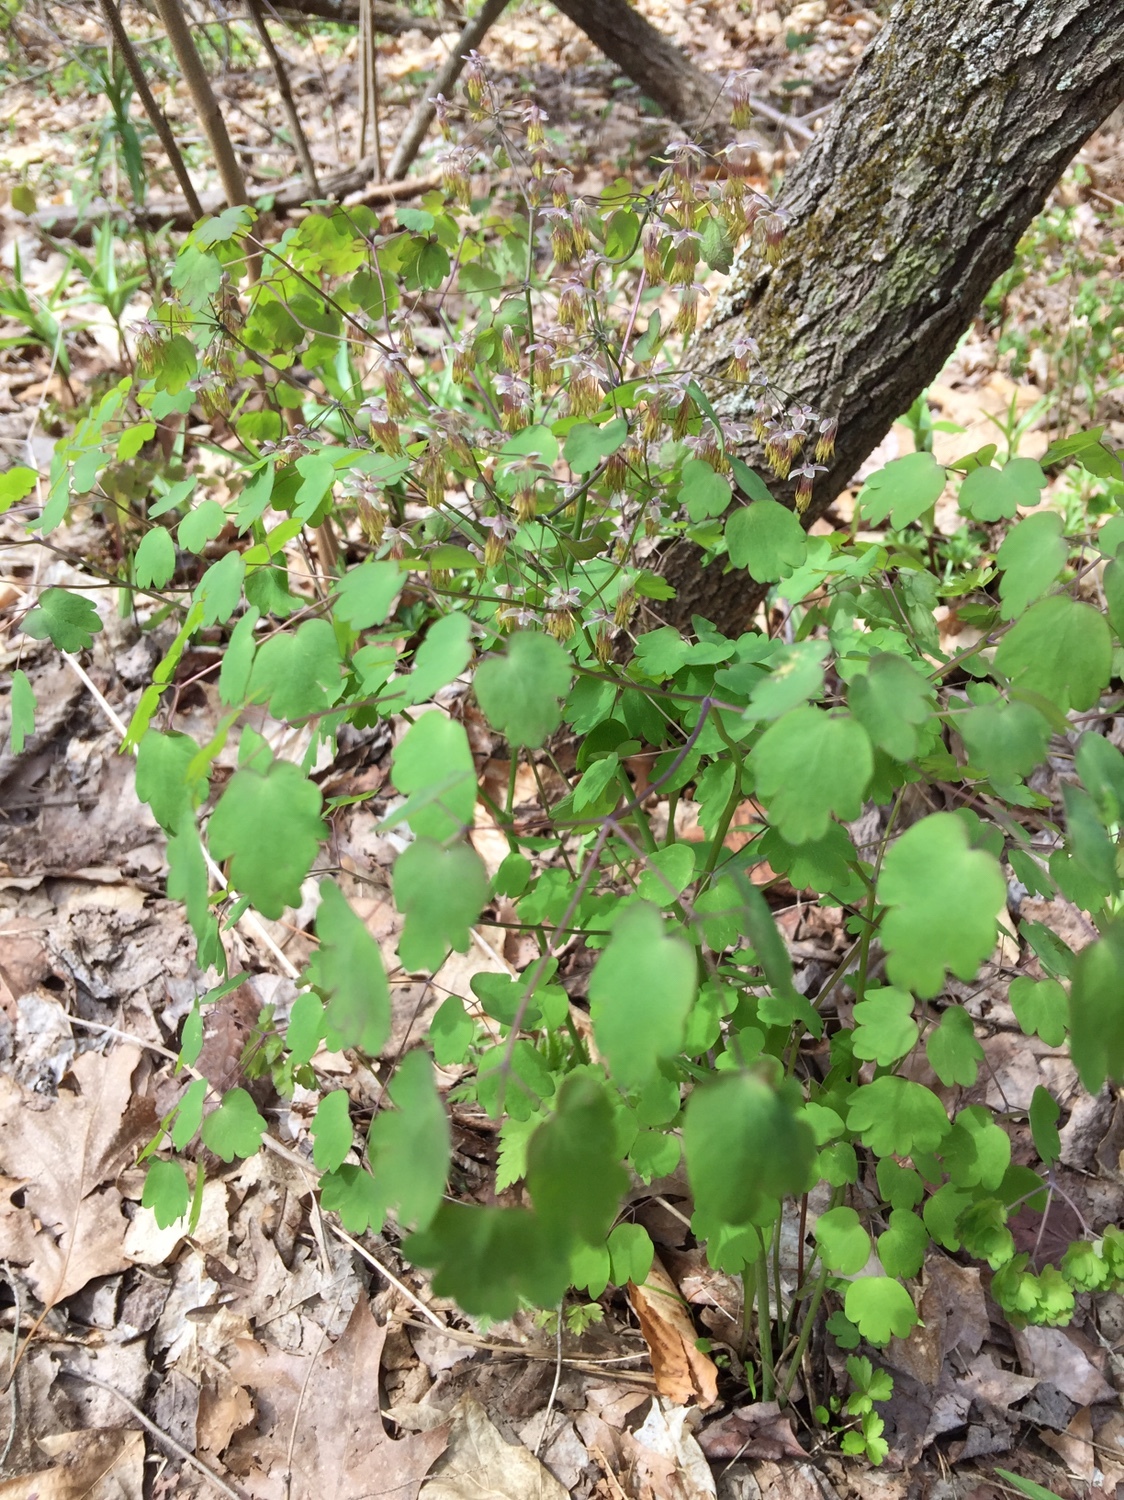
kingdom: Plantae
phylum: Tracheophyta
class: Magnoliopsida
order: Ranunculales
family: Ranunculaceae
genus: Thalictrum
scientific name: Thalictrum dioicum
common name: Early meadow-rue
